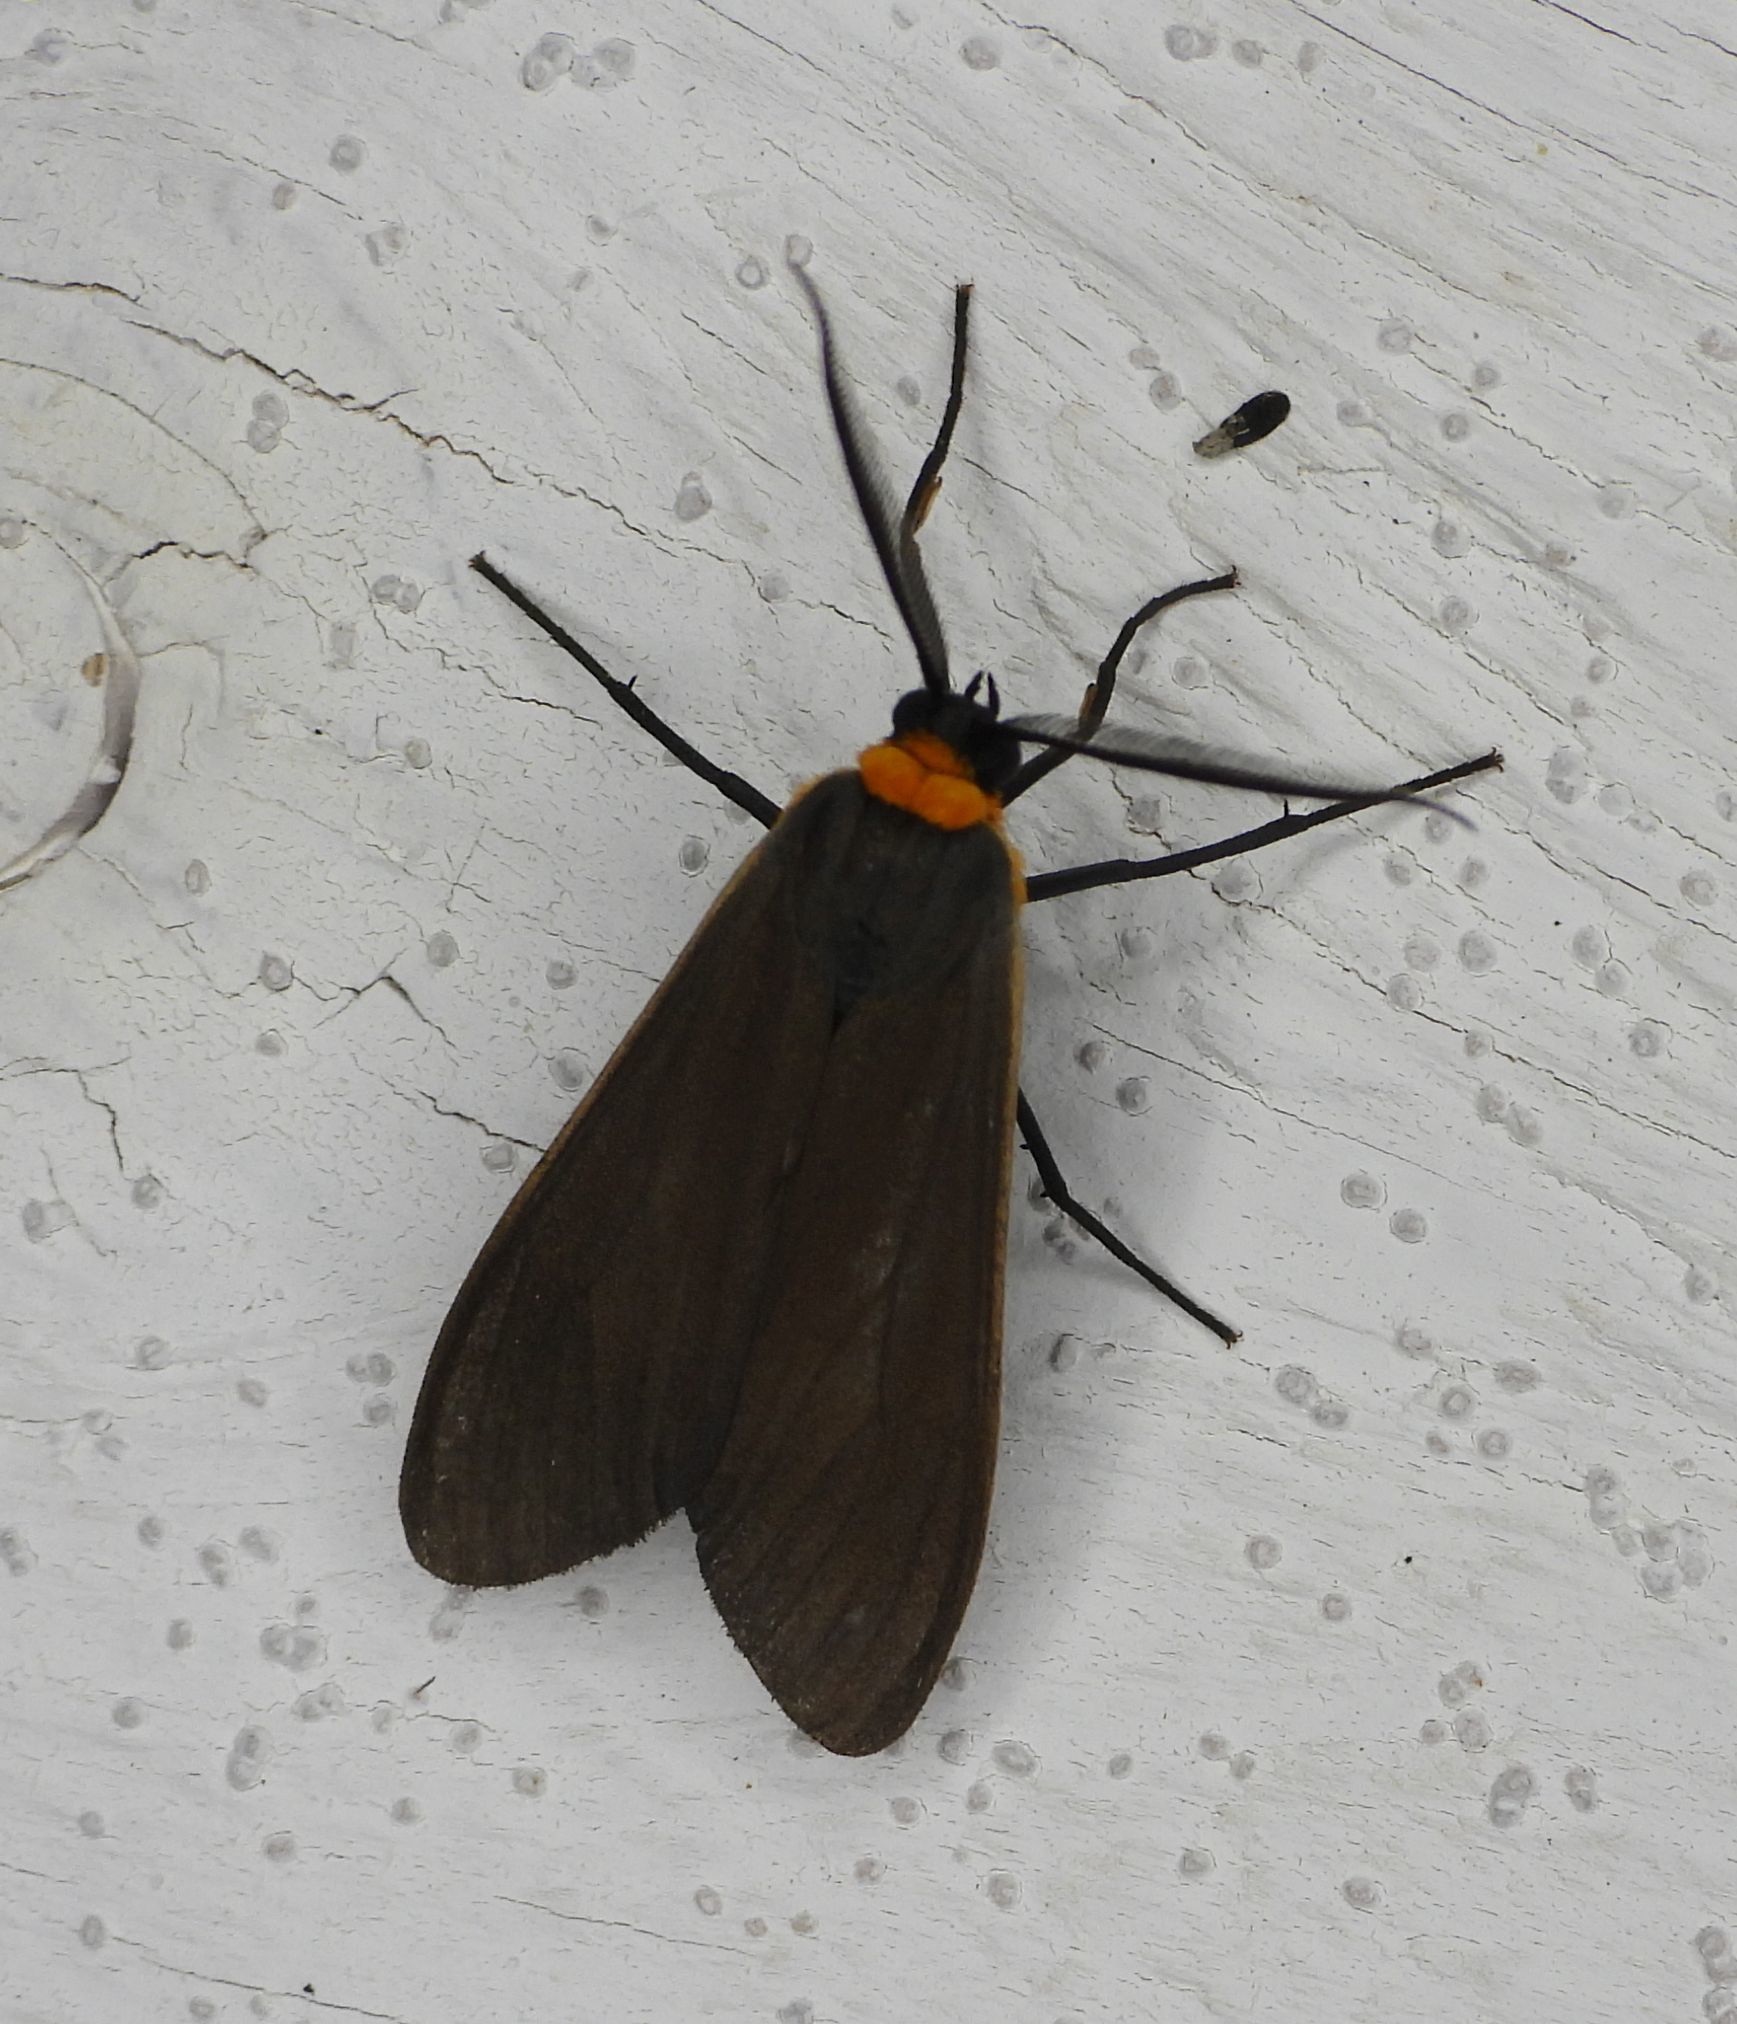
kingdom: Animalia
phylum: Arthropoda
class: Insecta
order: Lepidoptera
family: Erebidae
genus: Cisseps
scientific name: Cisseps fulvicollis
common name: Yellow-collared scape moth
